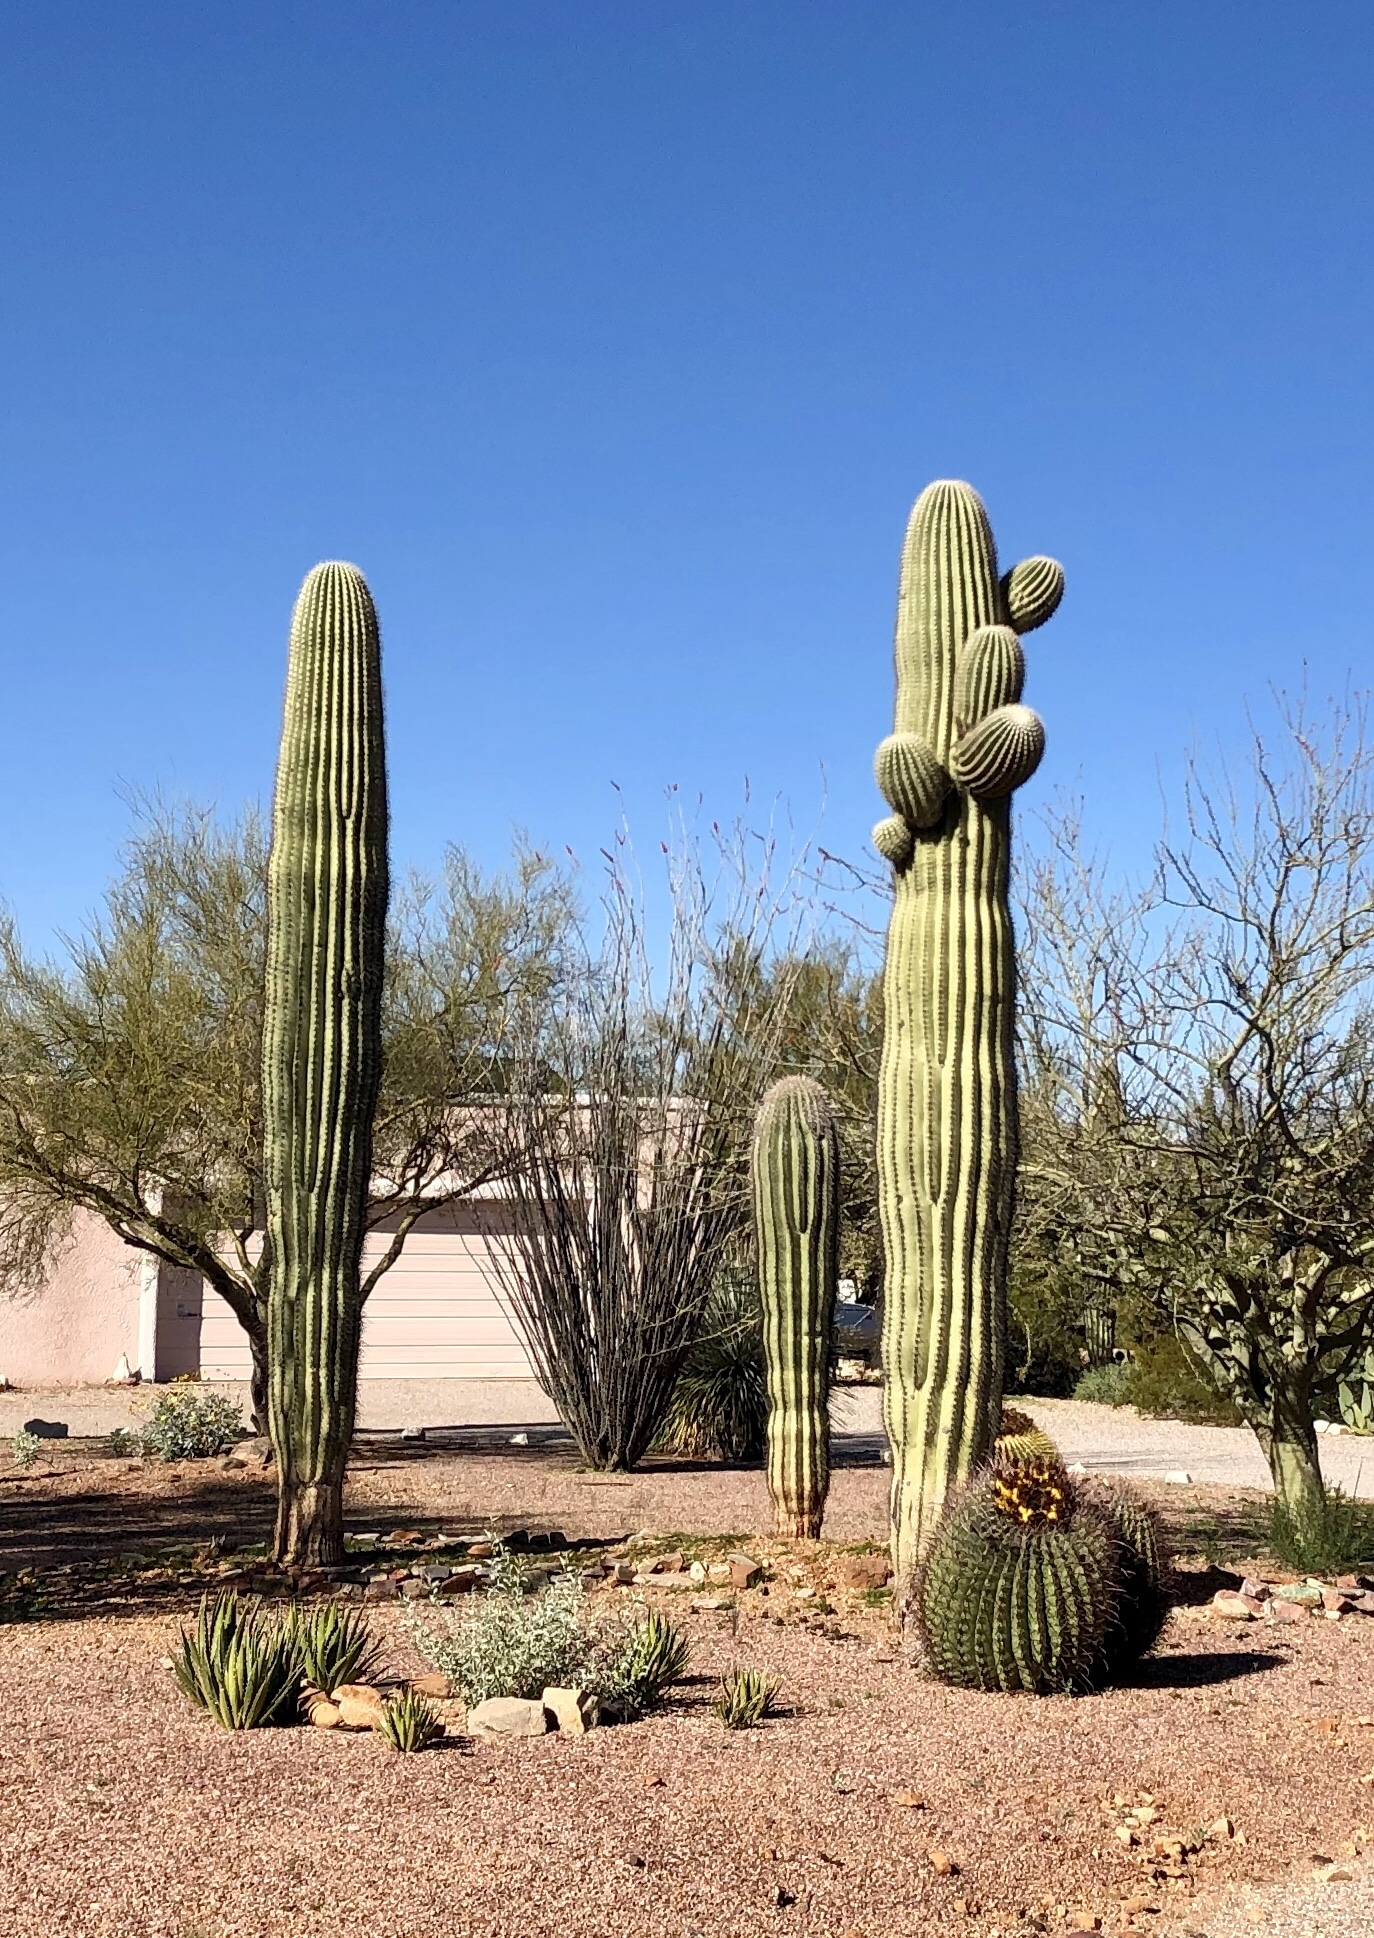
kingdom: Plantae
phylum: Tracheophyta
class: Magnoliopsida
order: Caryophyllales
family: Cactaceae
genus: Carnegiea
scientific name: Carnegiea gigantea
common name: Saguaro
